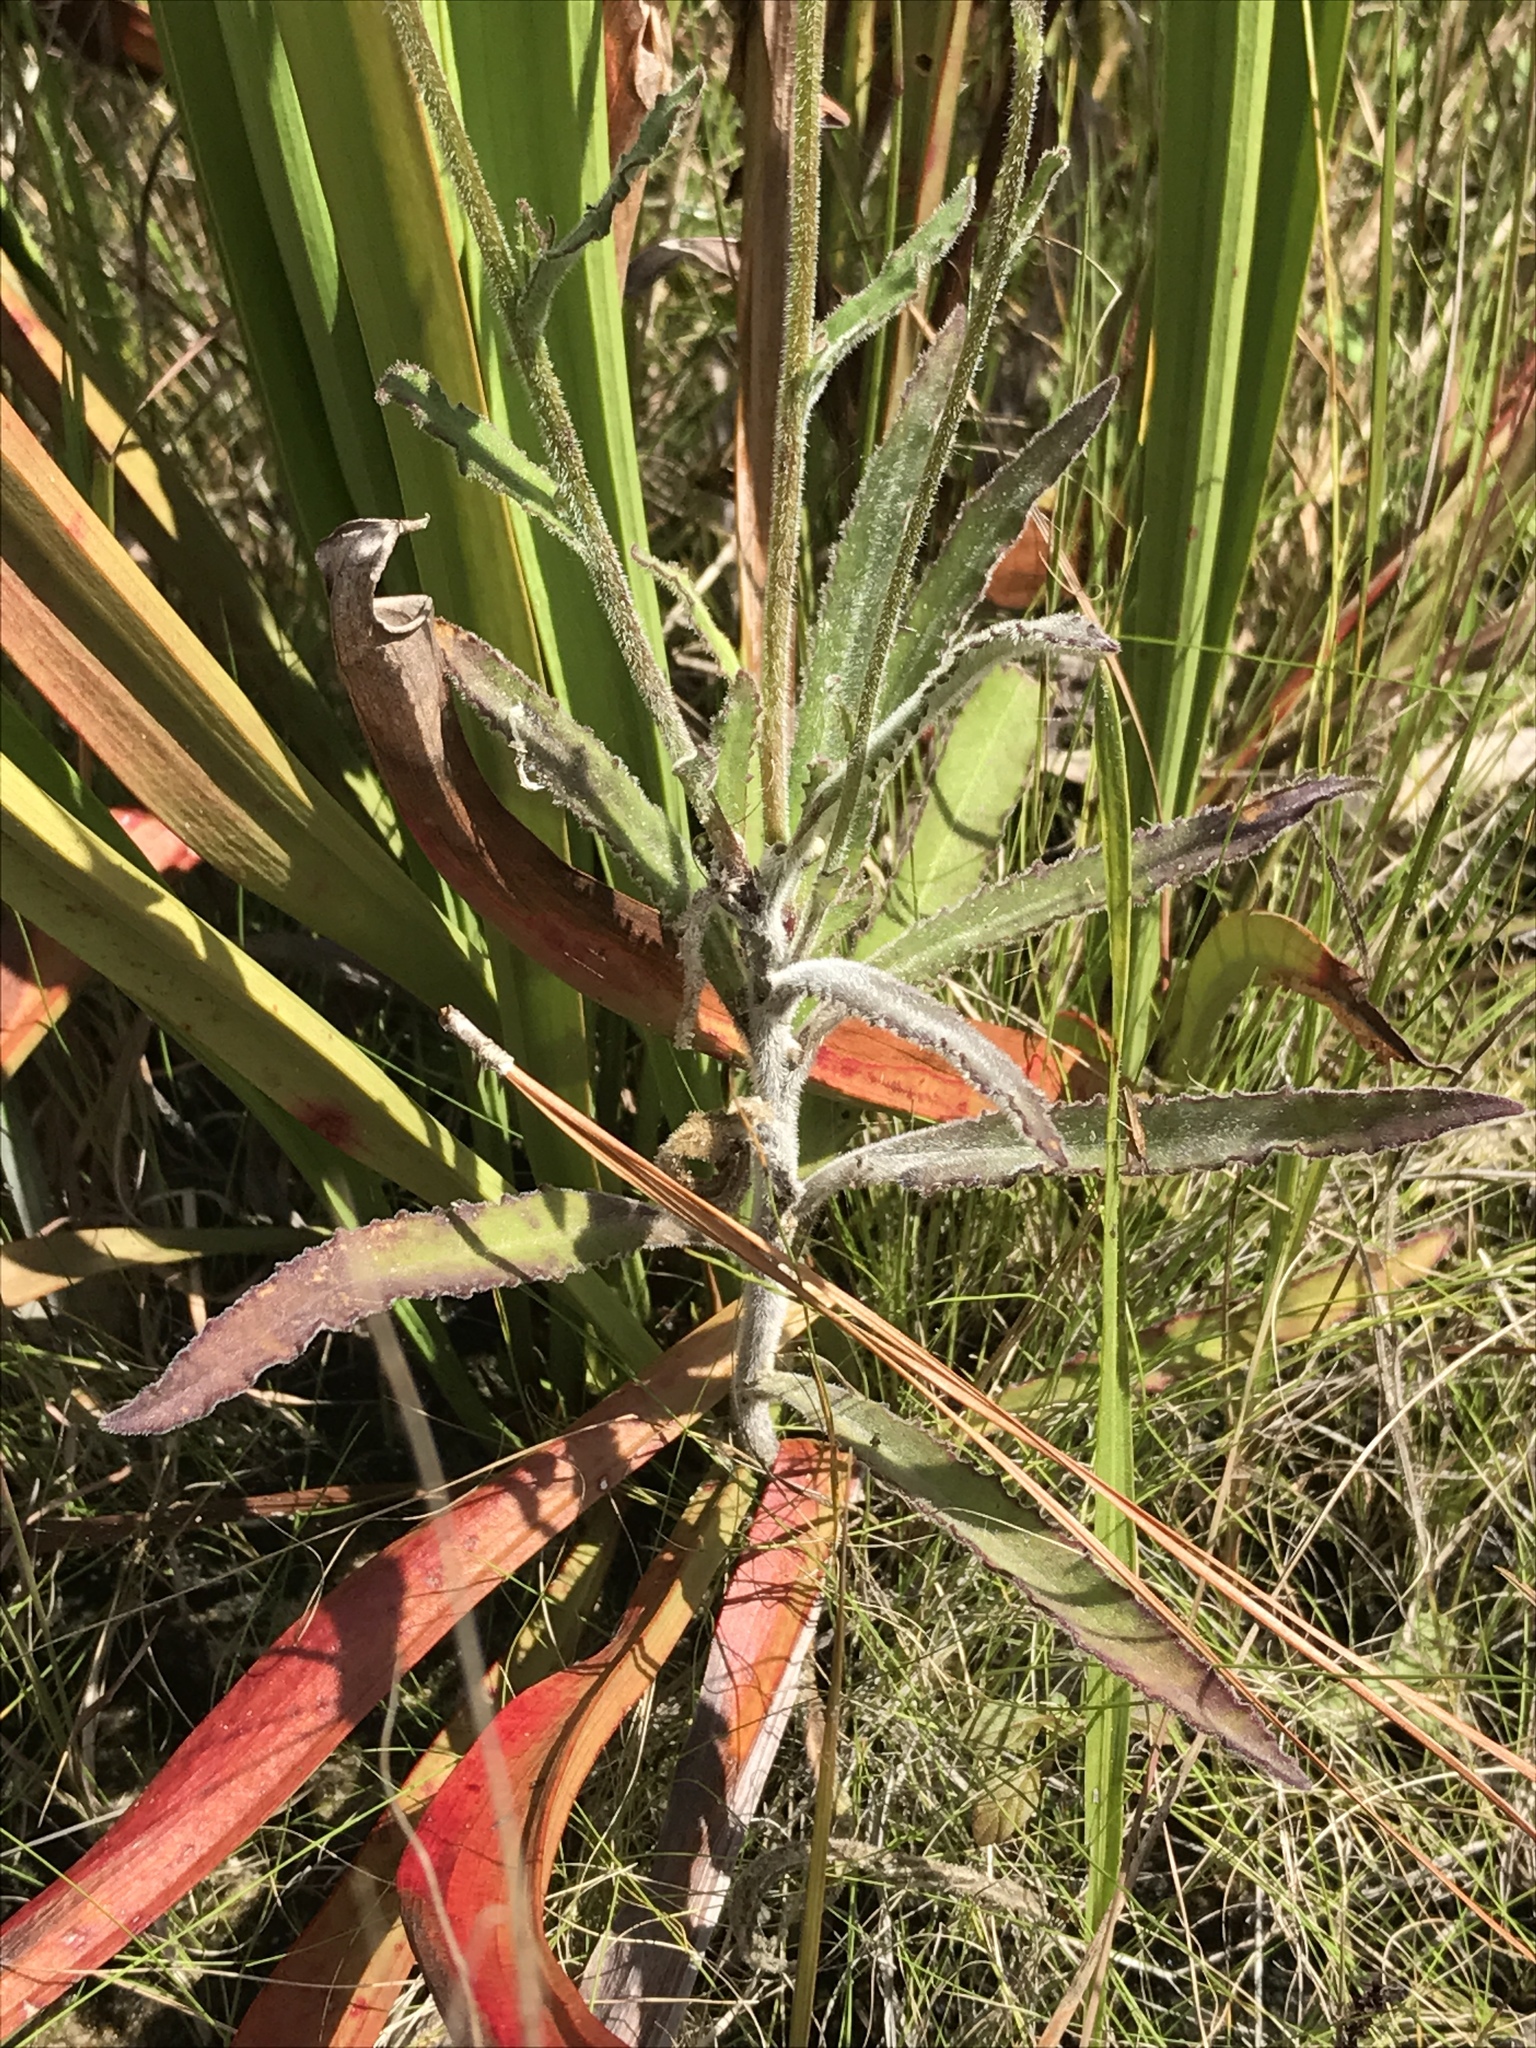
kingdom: Plantae
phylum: Tracheophyta
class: Magnoliopsida
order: Asterales
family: Campanulaceae
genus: Lobelia
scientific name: Lobelia reverchonii
